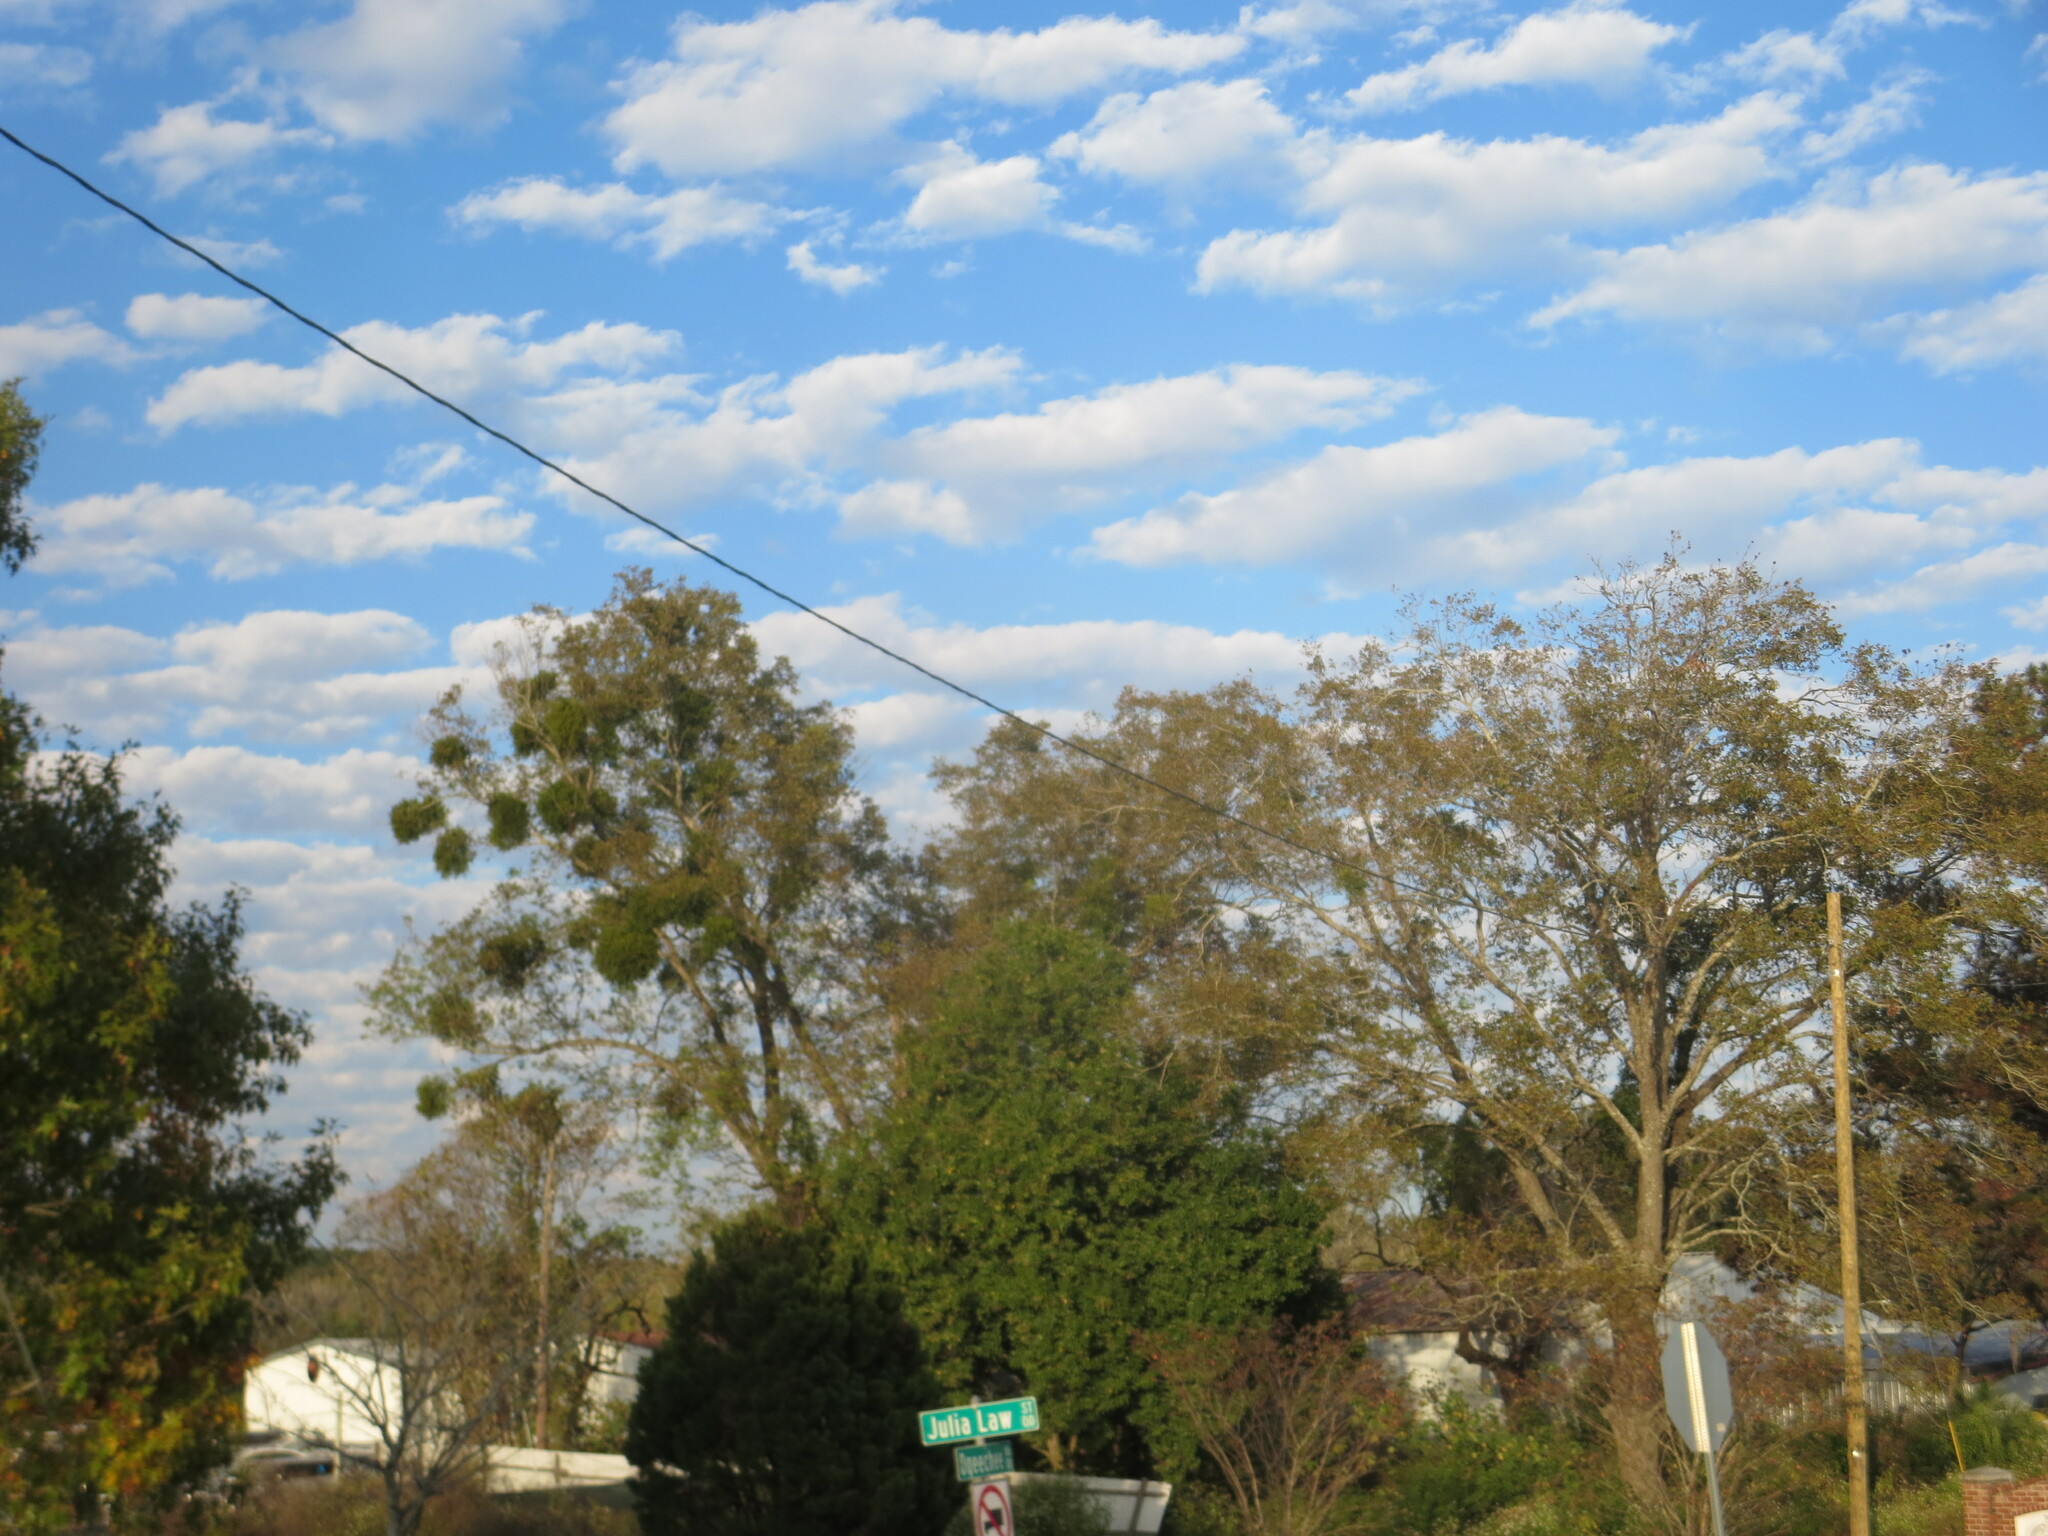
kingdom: Plantae
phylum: Tracheophyta
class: Magnoliopsida
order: Santalales
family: Viscaceae
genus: Phoradendron
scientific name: Phoradendron leucarpum
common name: Pacific mistletoe
